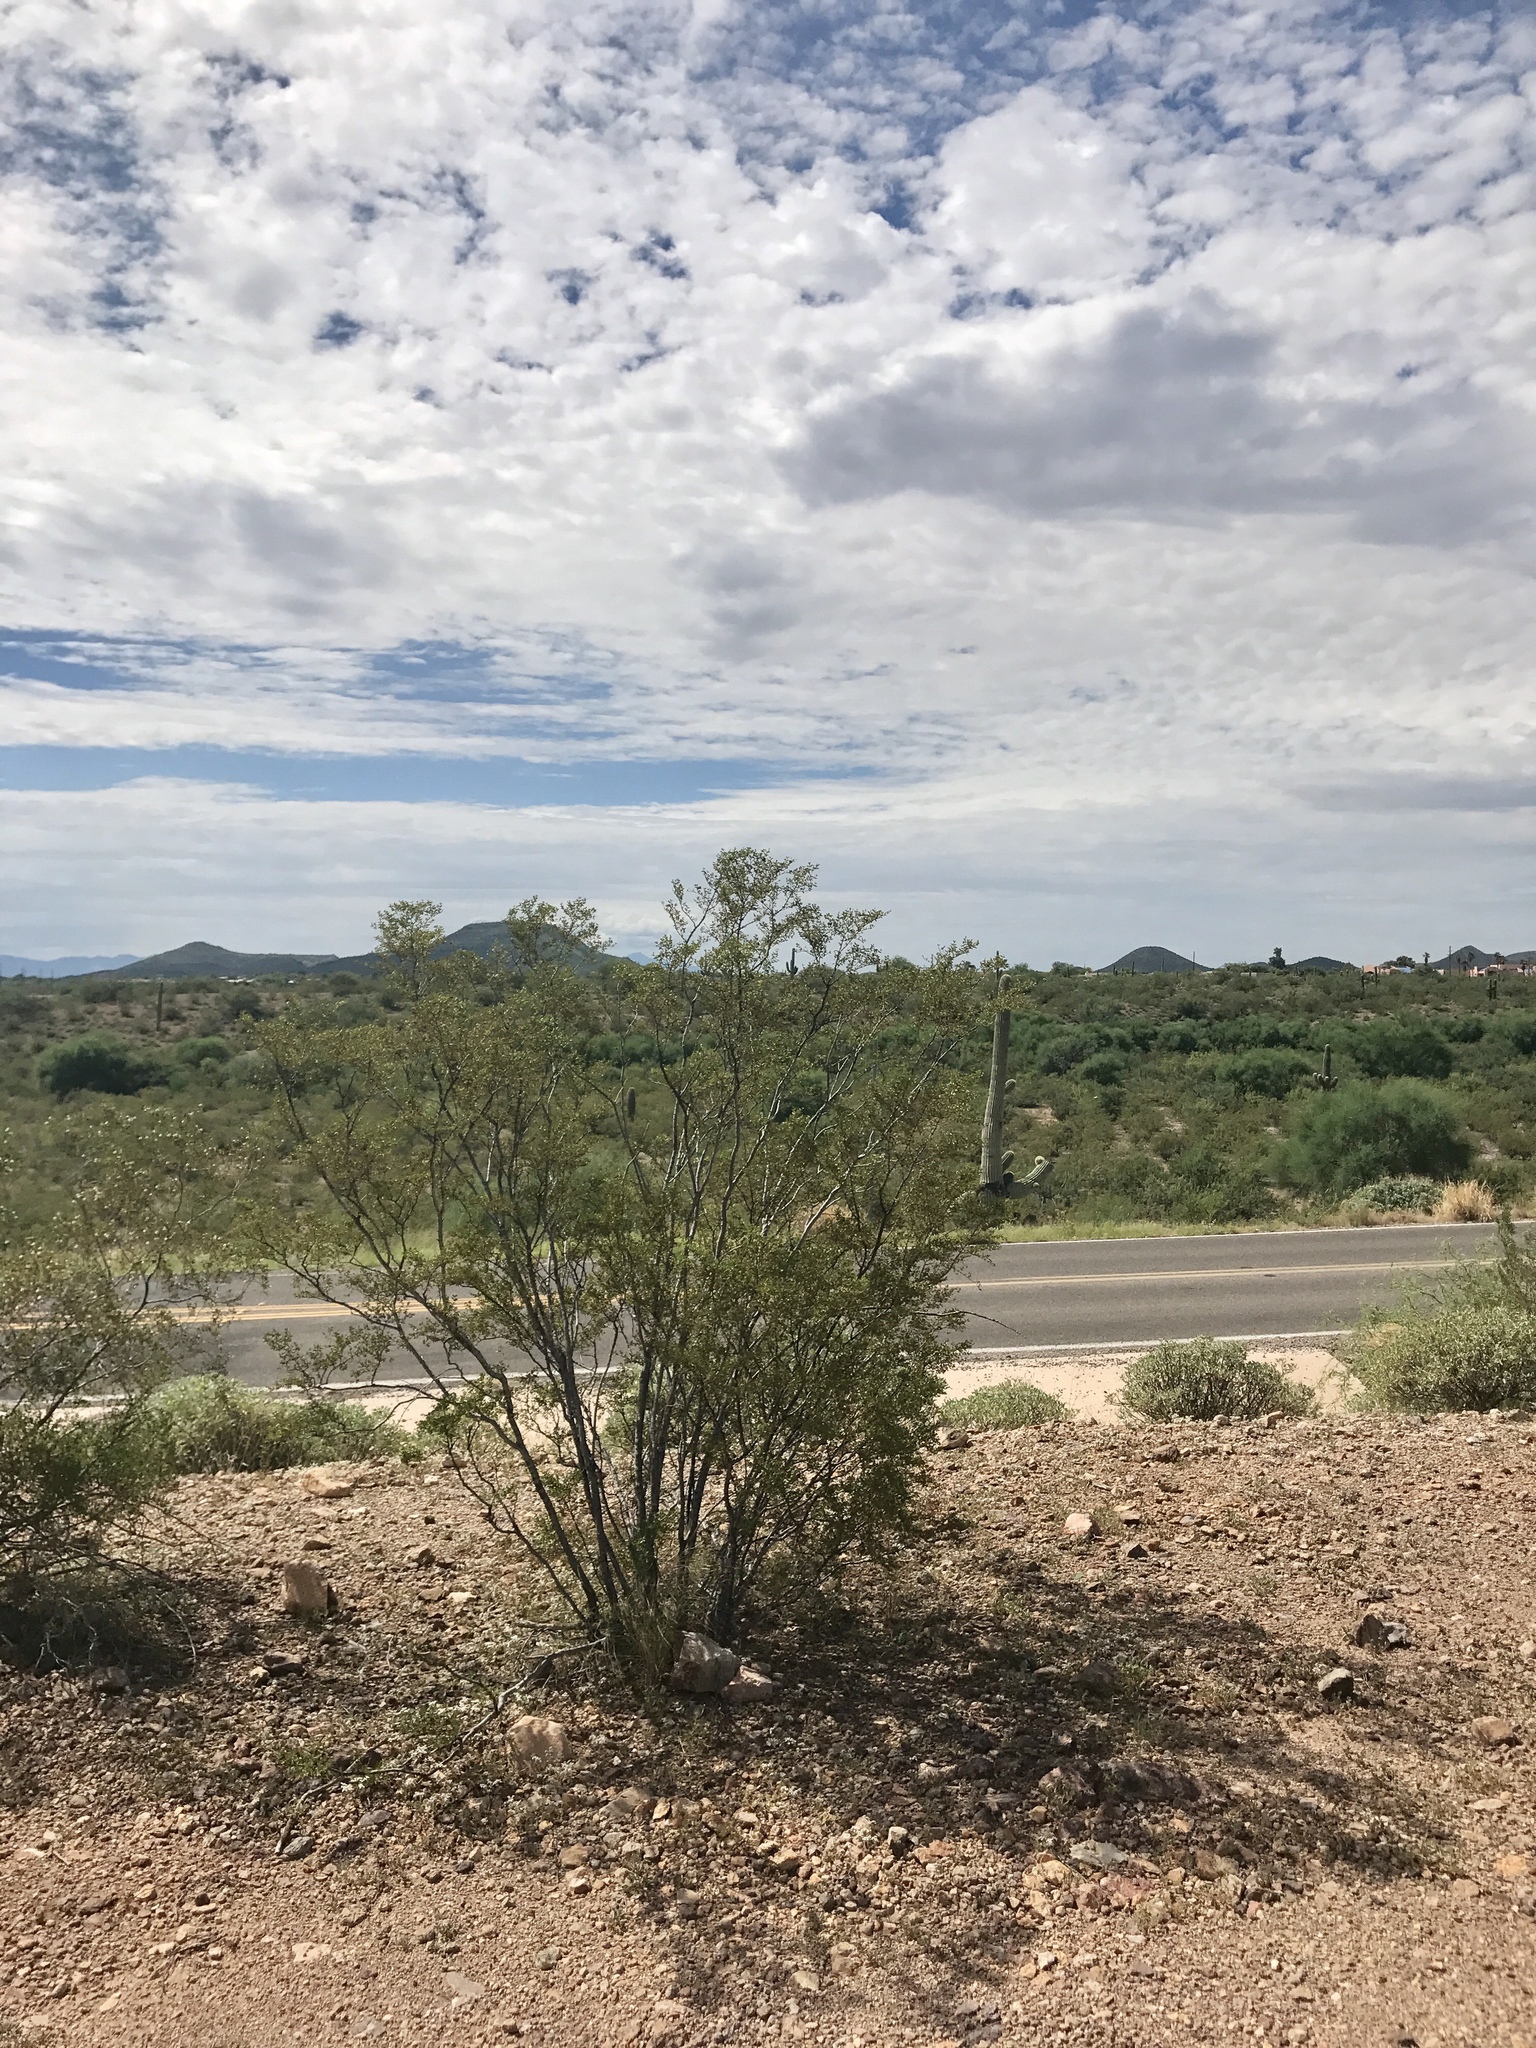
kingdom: Plantae
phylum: Tracheophyta
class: Magnoliopsida
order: Zygophyllales
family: Zygophyllaceae
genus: Larrea
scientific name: Larrea tridentata
